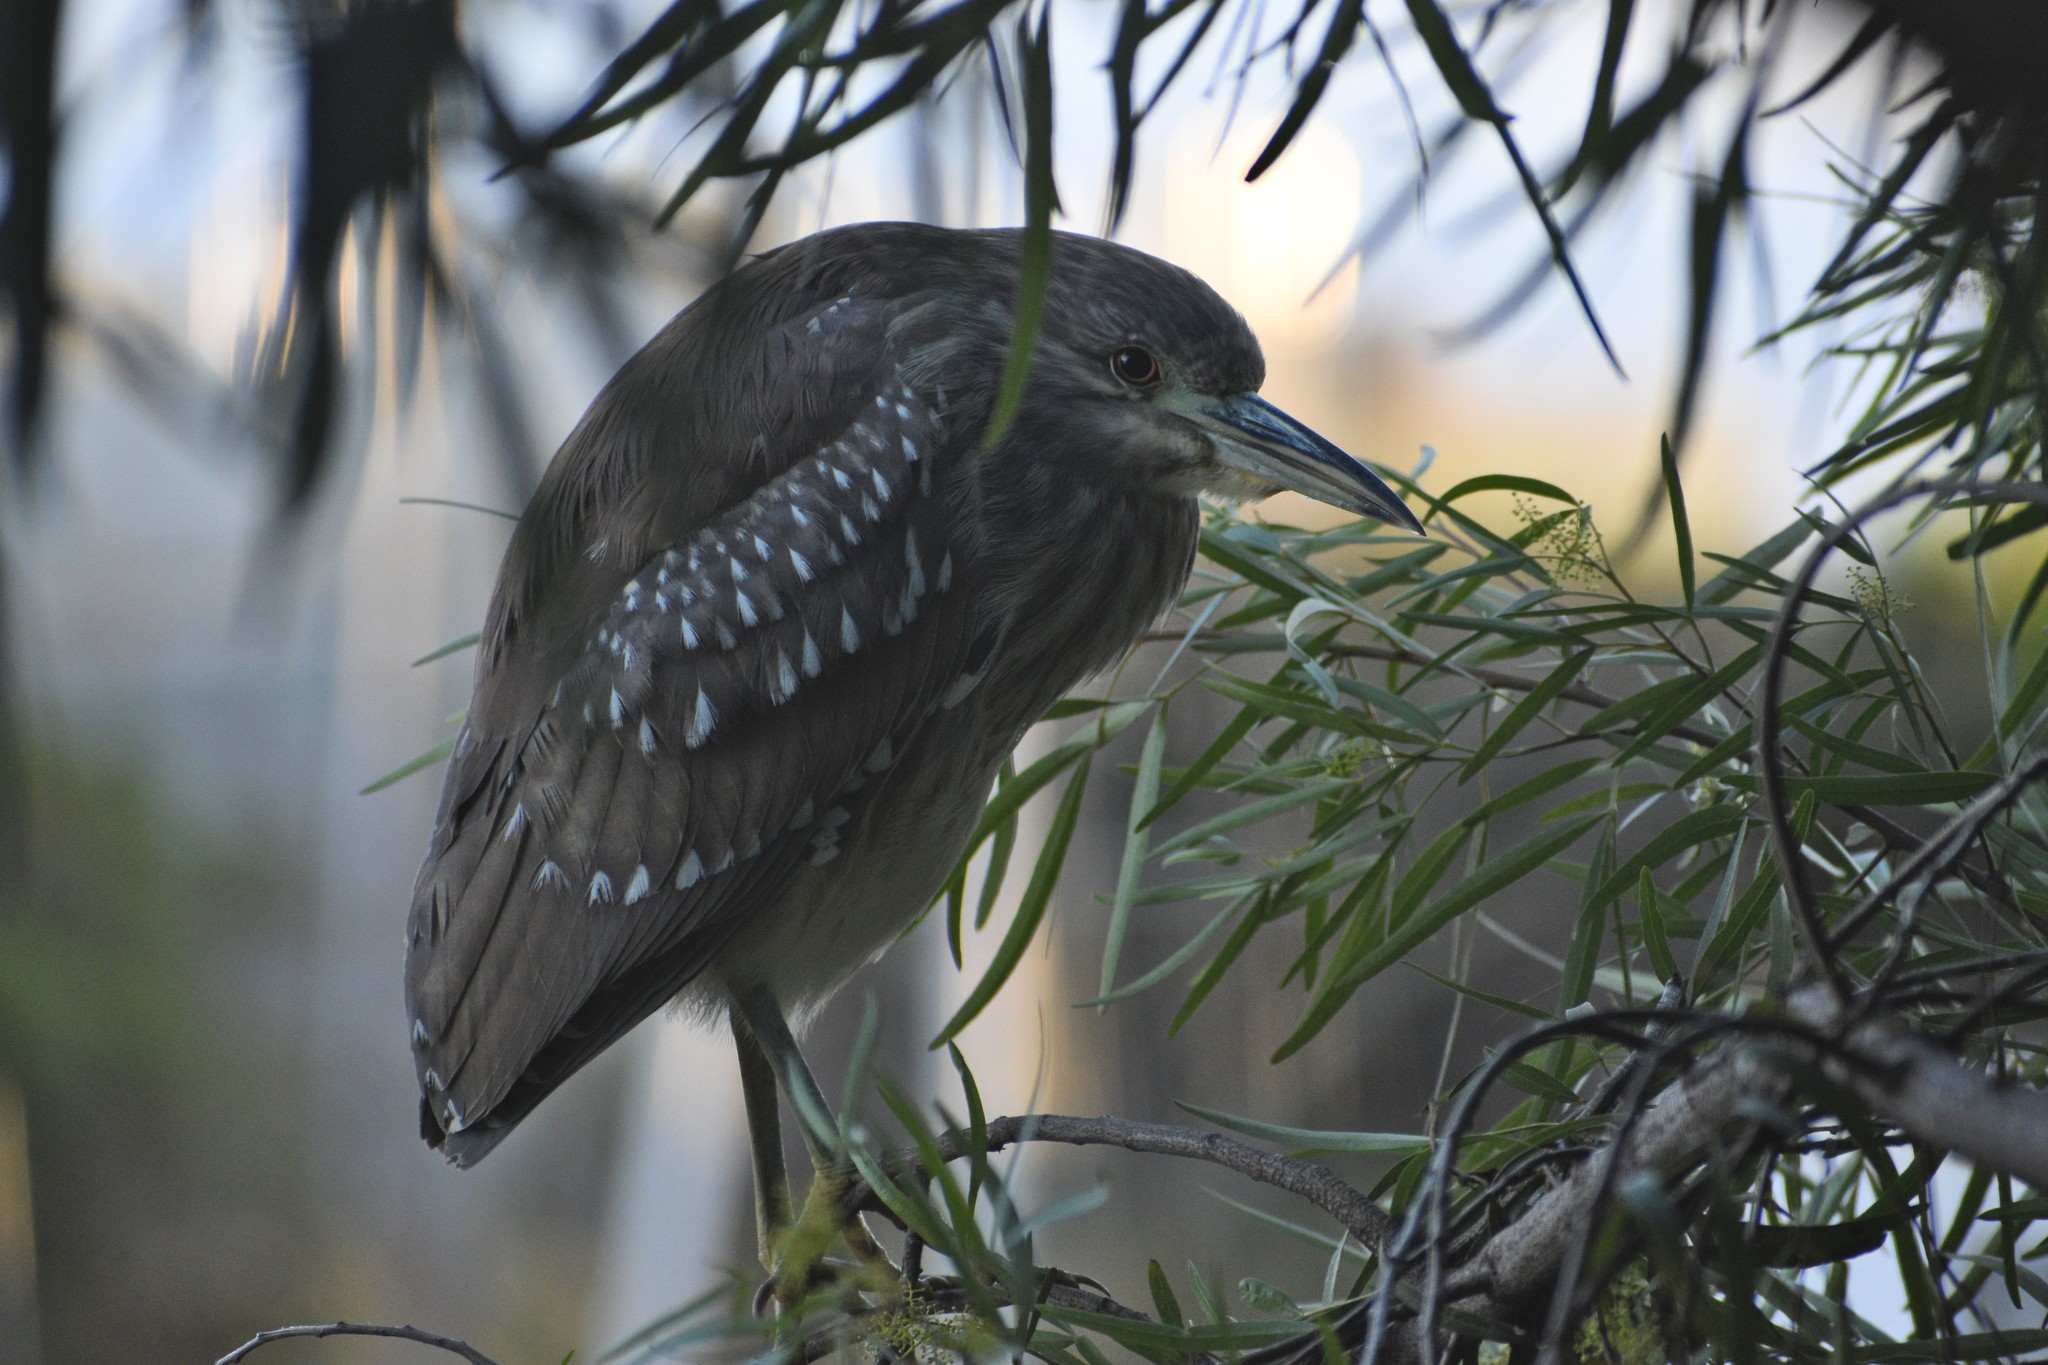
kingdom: Animalia
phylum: Chordata
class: Aves
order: Pelecaniformes
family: Ardeidae
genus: Nycticorax
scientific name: Nycticorax nycticorax
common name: Black-crowned night heron
